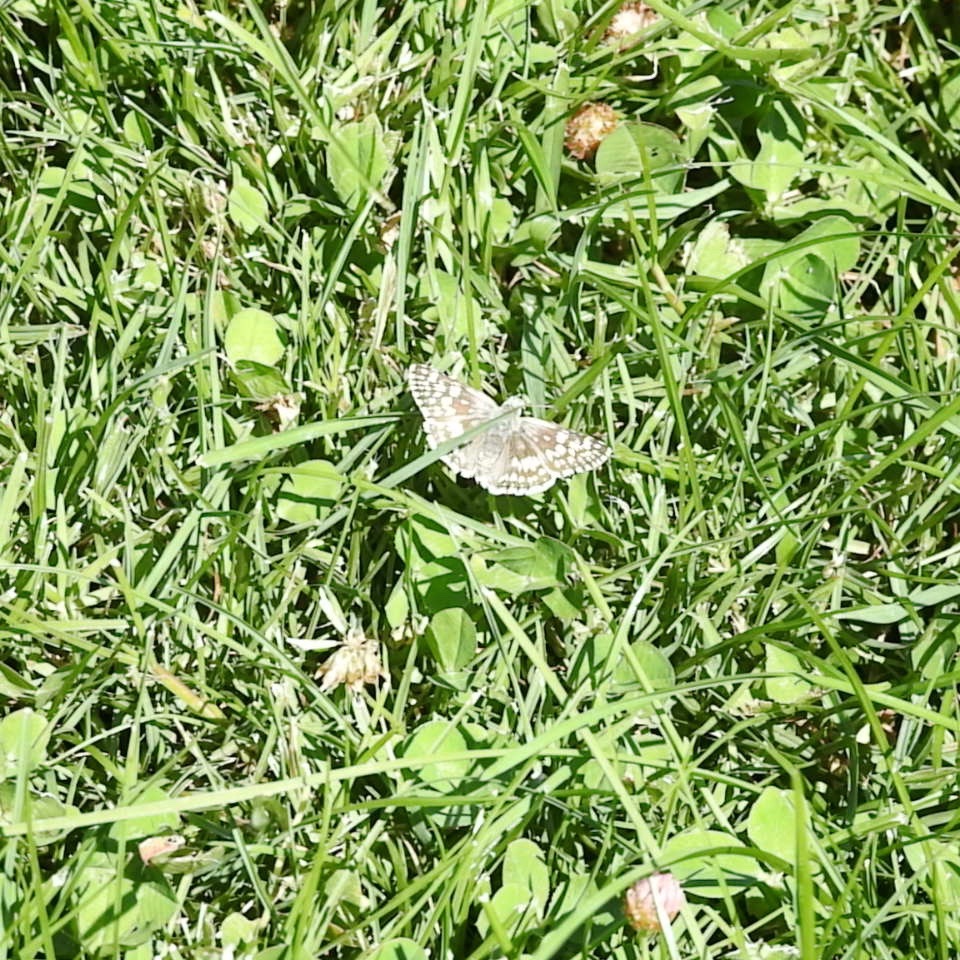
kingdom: Animalia
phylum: Arthropoda
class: Insecta
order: Lepidoptera
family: Hesperiidae
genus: Burnsius
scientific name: Burnsius communis
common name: Common checkered-skipper
